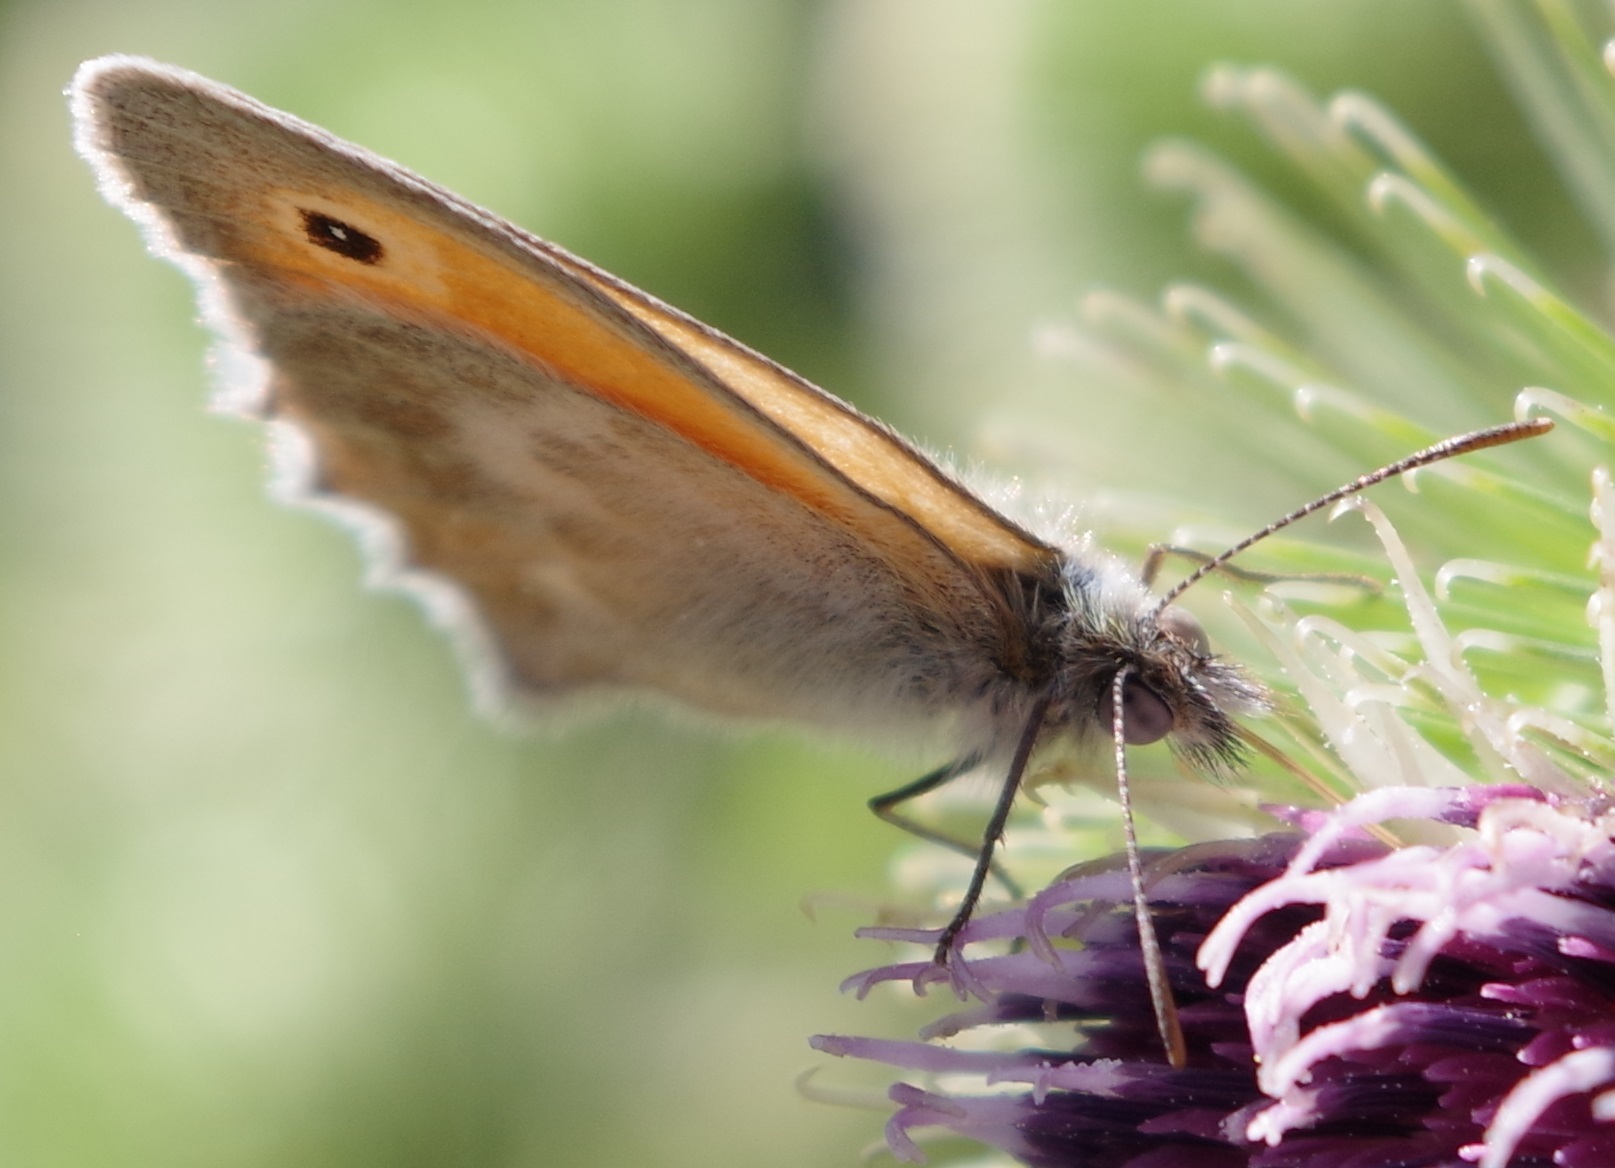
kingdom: Animalia
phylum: Arthropoda
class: Insecta
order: Lepidoptera
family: Nymphalidae
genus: Coenonympha
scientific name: Coenonympha pamphilus
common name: Small heath
